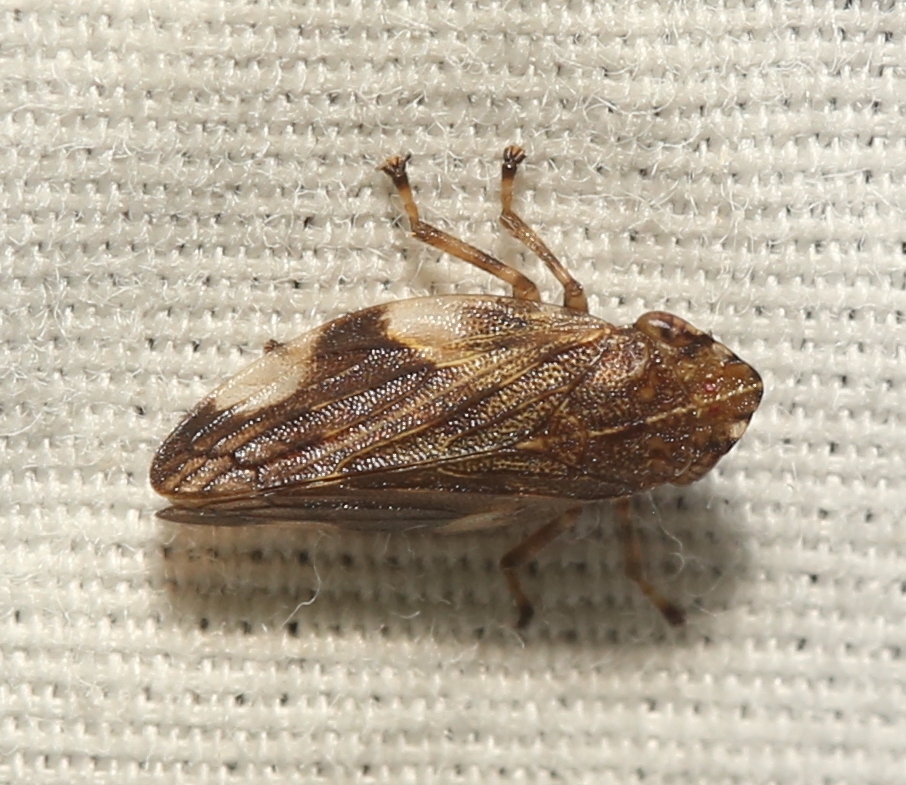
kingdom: Animalia
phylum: Arthropoda
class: Insecta
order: Hemiptera
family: Aphrophoridae
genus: Aphrophora
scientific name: Aphrophora quadrinotata
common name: Four-spotted spittlebug
